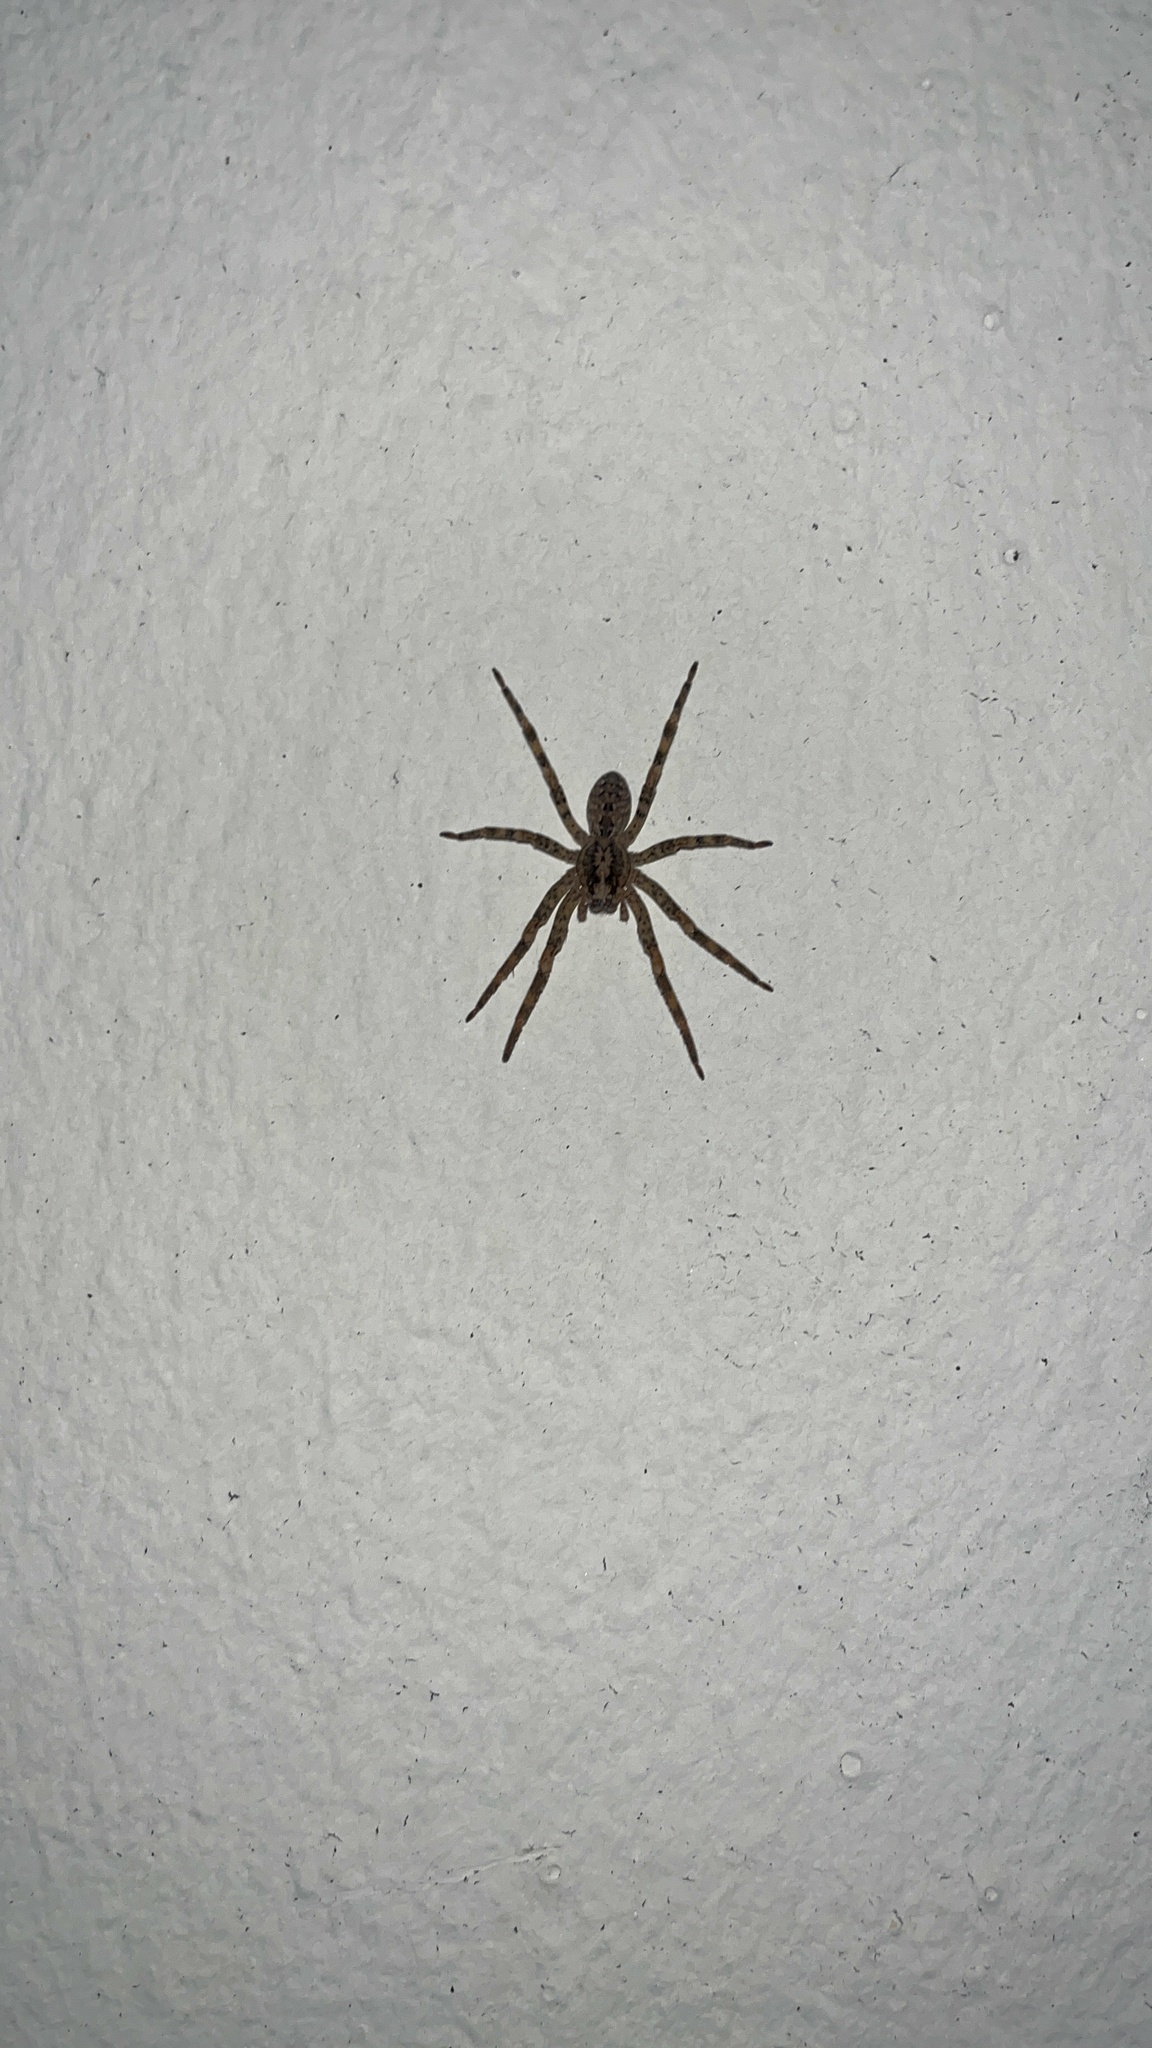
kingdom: Animalia
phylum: Arthropoda
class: Arachnida
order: Araneae
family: Zoropsidae
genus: Zoropsis
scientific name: Zoropsis spinimana
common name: Zoropsid spider
